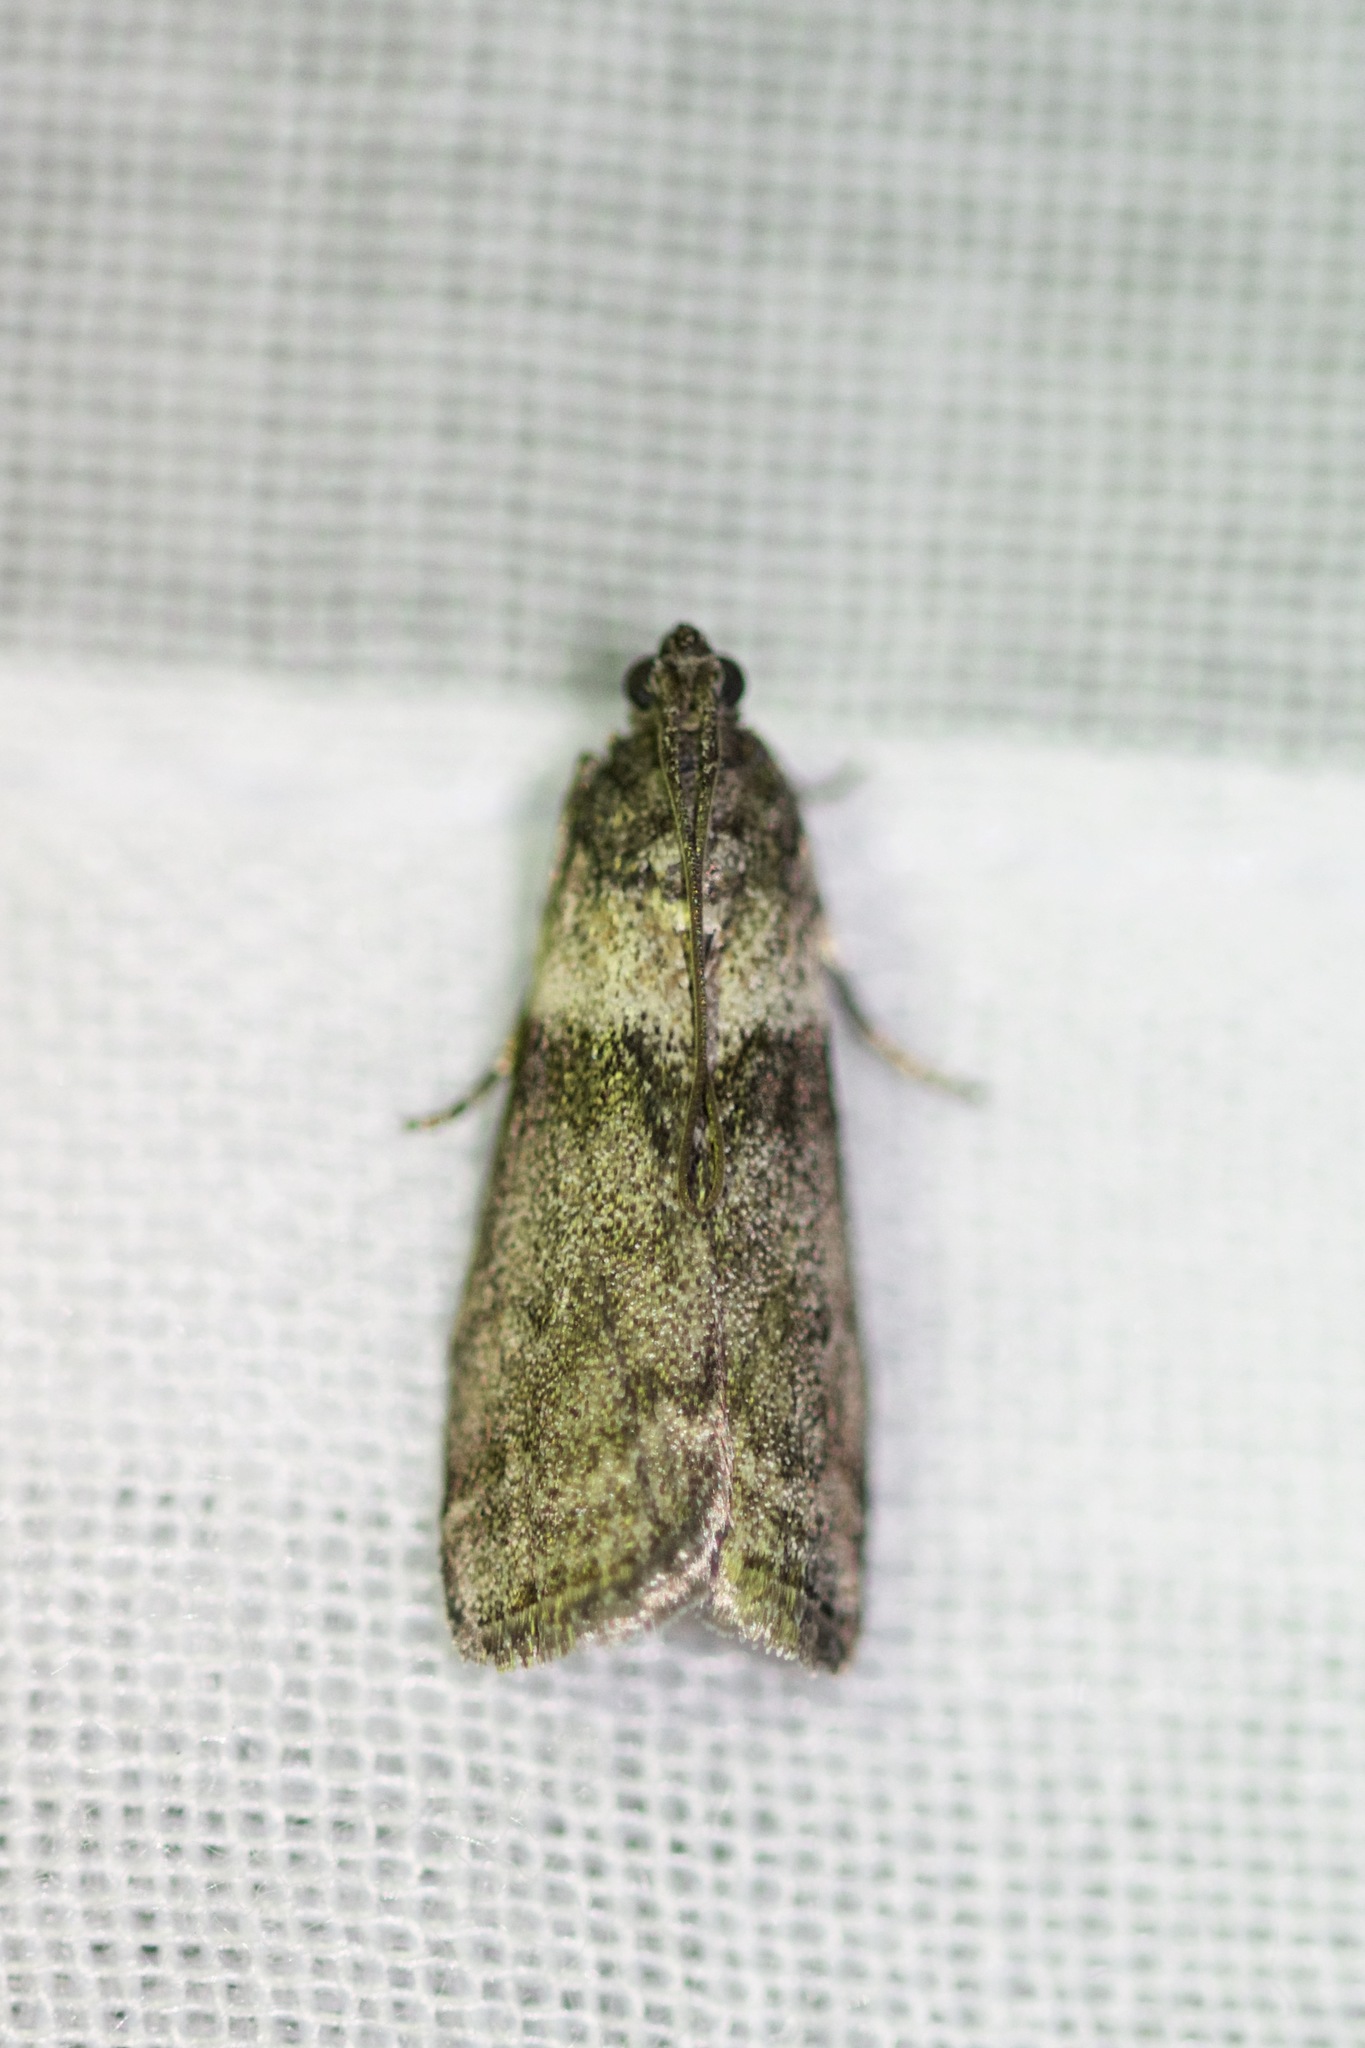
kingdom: Animalia
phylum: Arthropoda
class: Insecta
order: Lepidoptera
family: Pyralidae
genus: Meroptera
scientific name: Meroptera pravella
